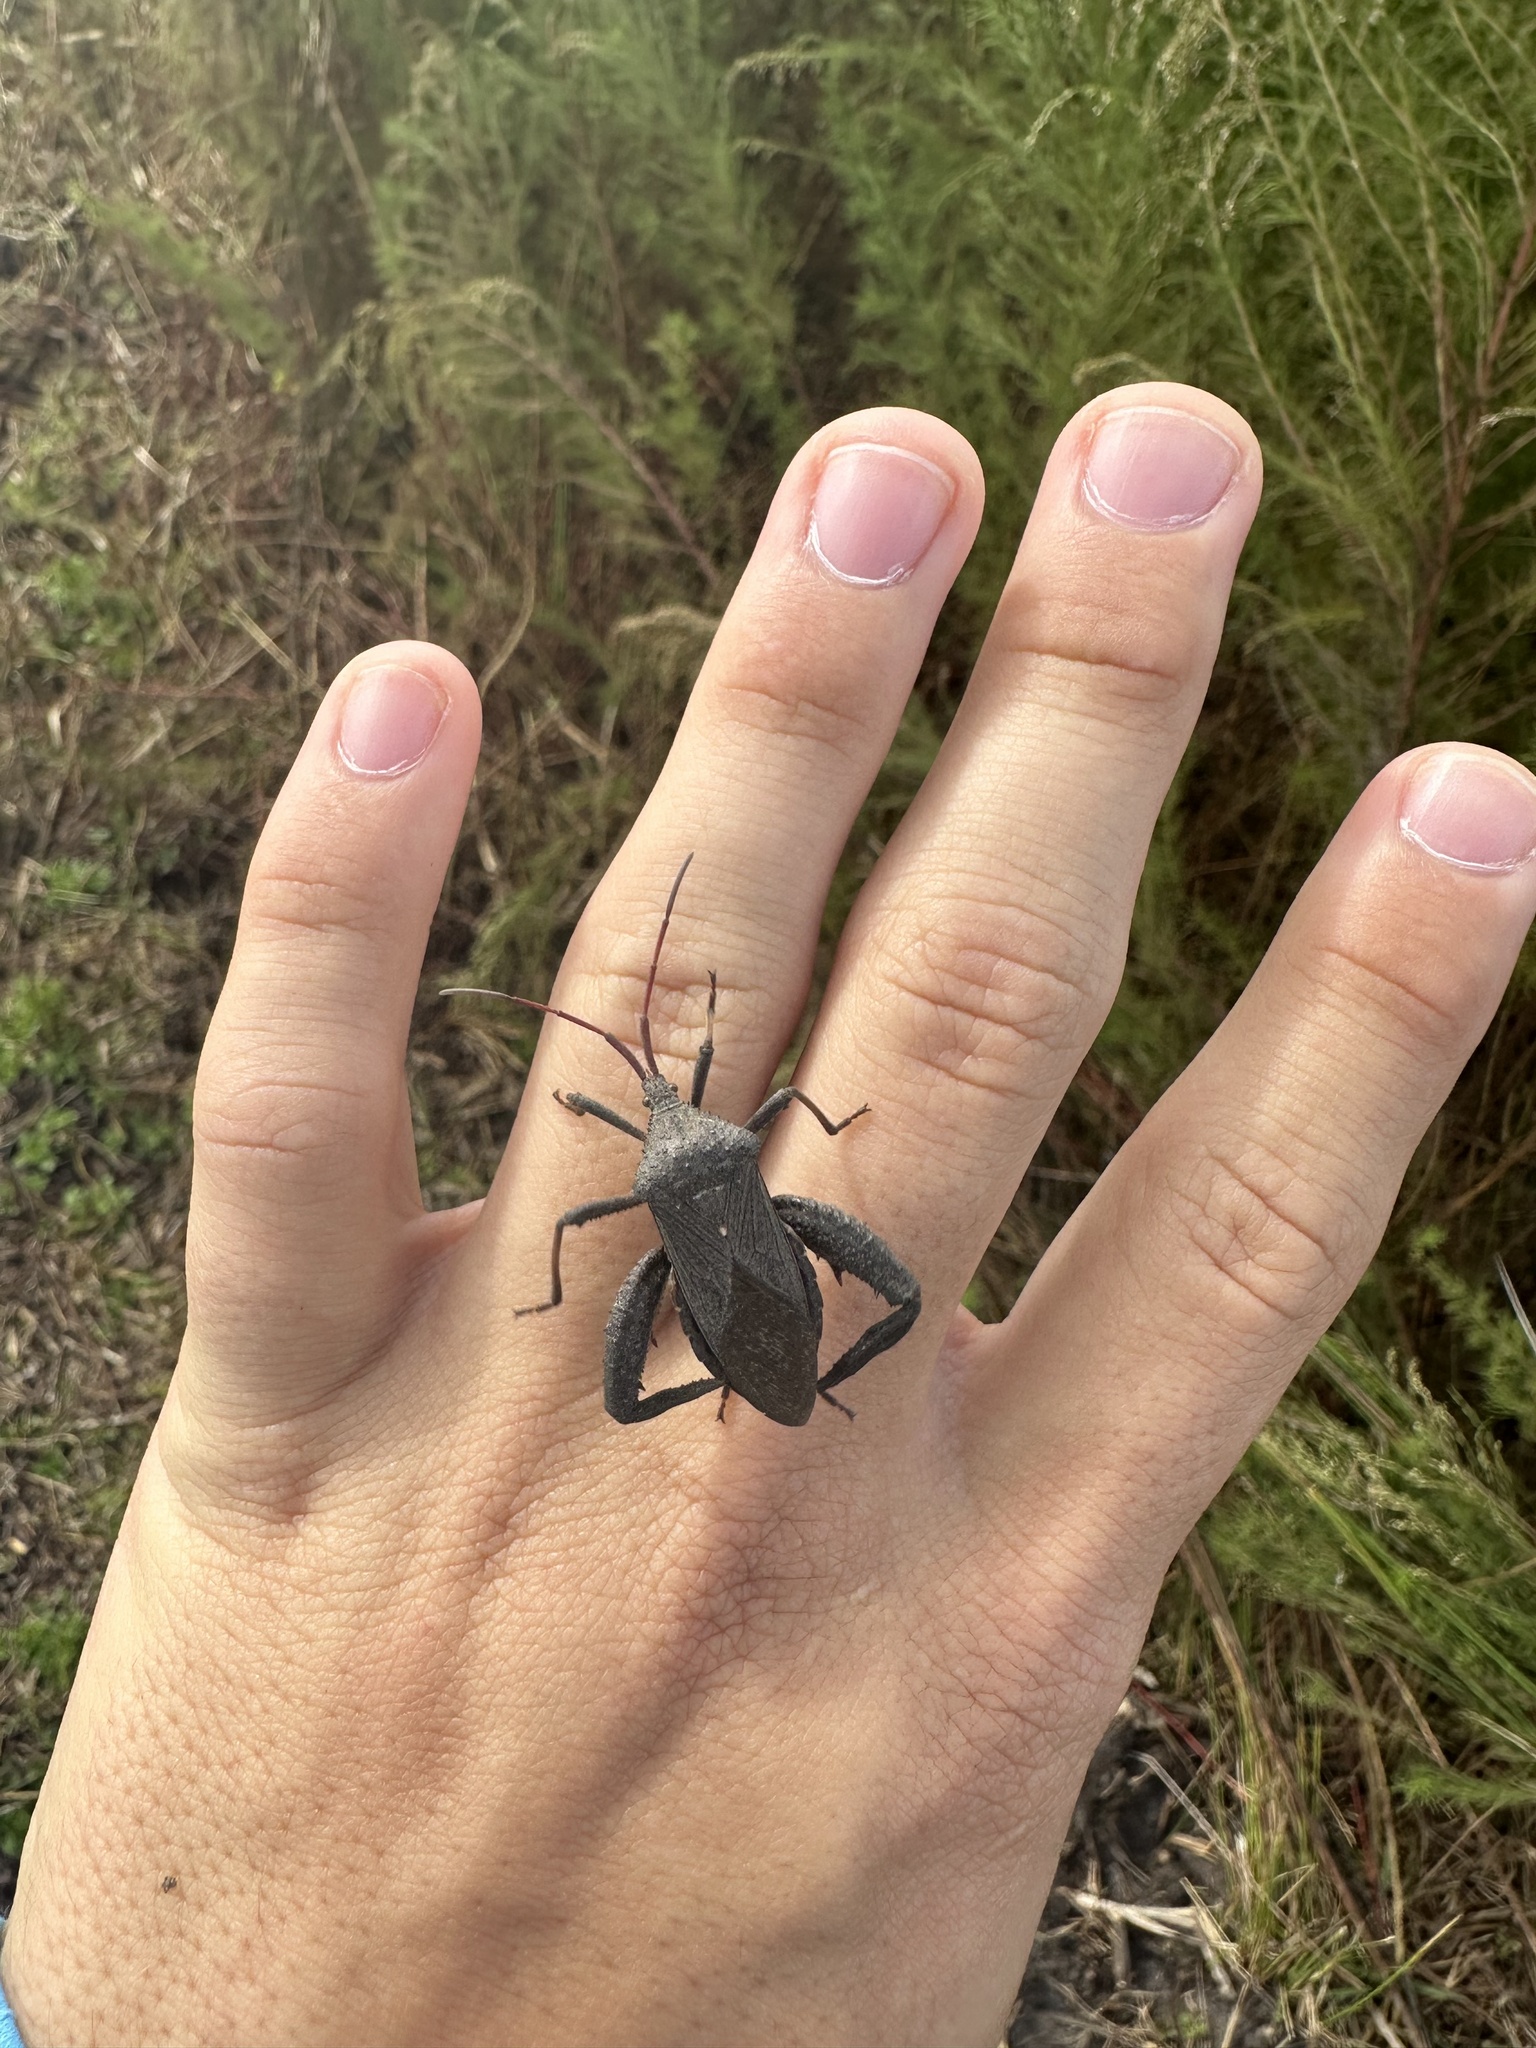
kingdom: Animalia
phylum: Arthropoda
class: Insecta
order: Hemiptera
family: Coreidae
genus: Acanthocephala
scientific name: Acanthocephala femorata
